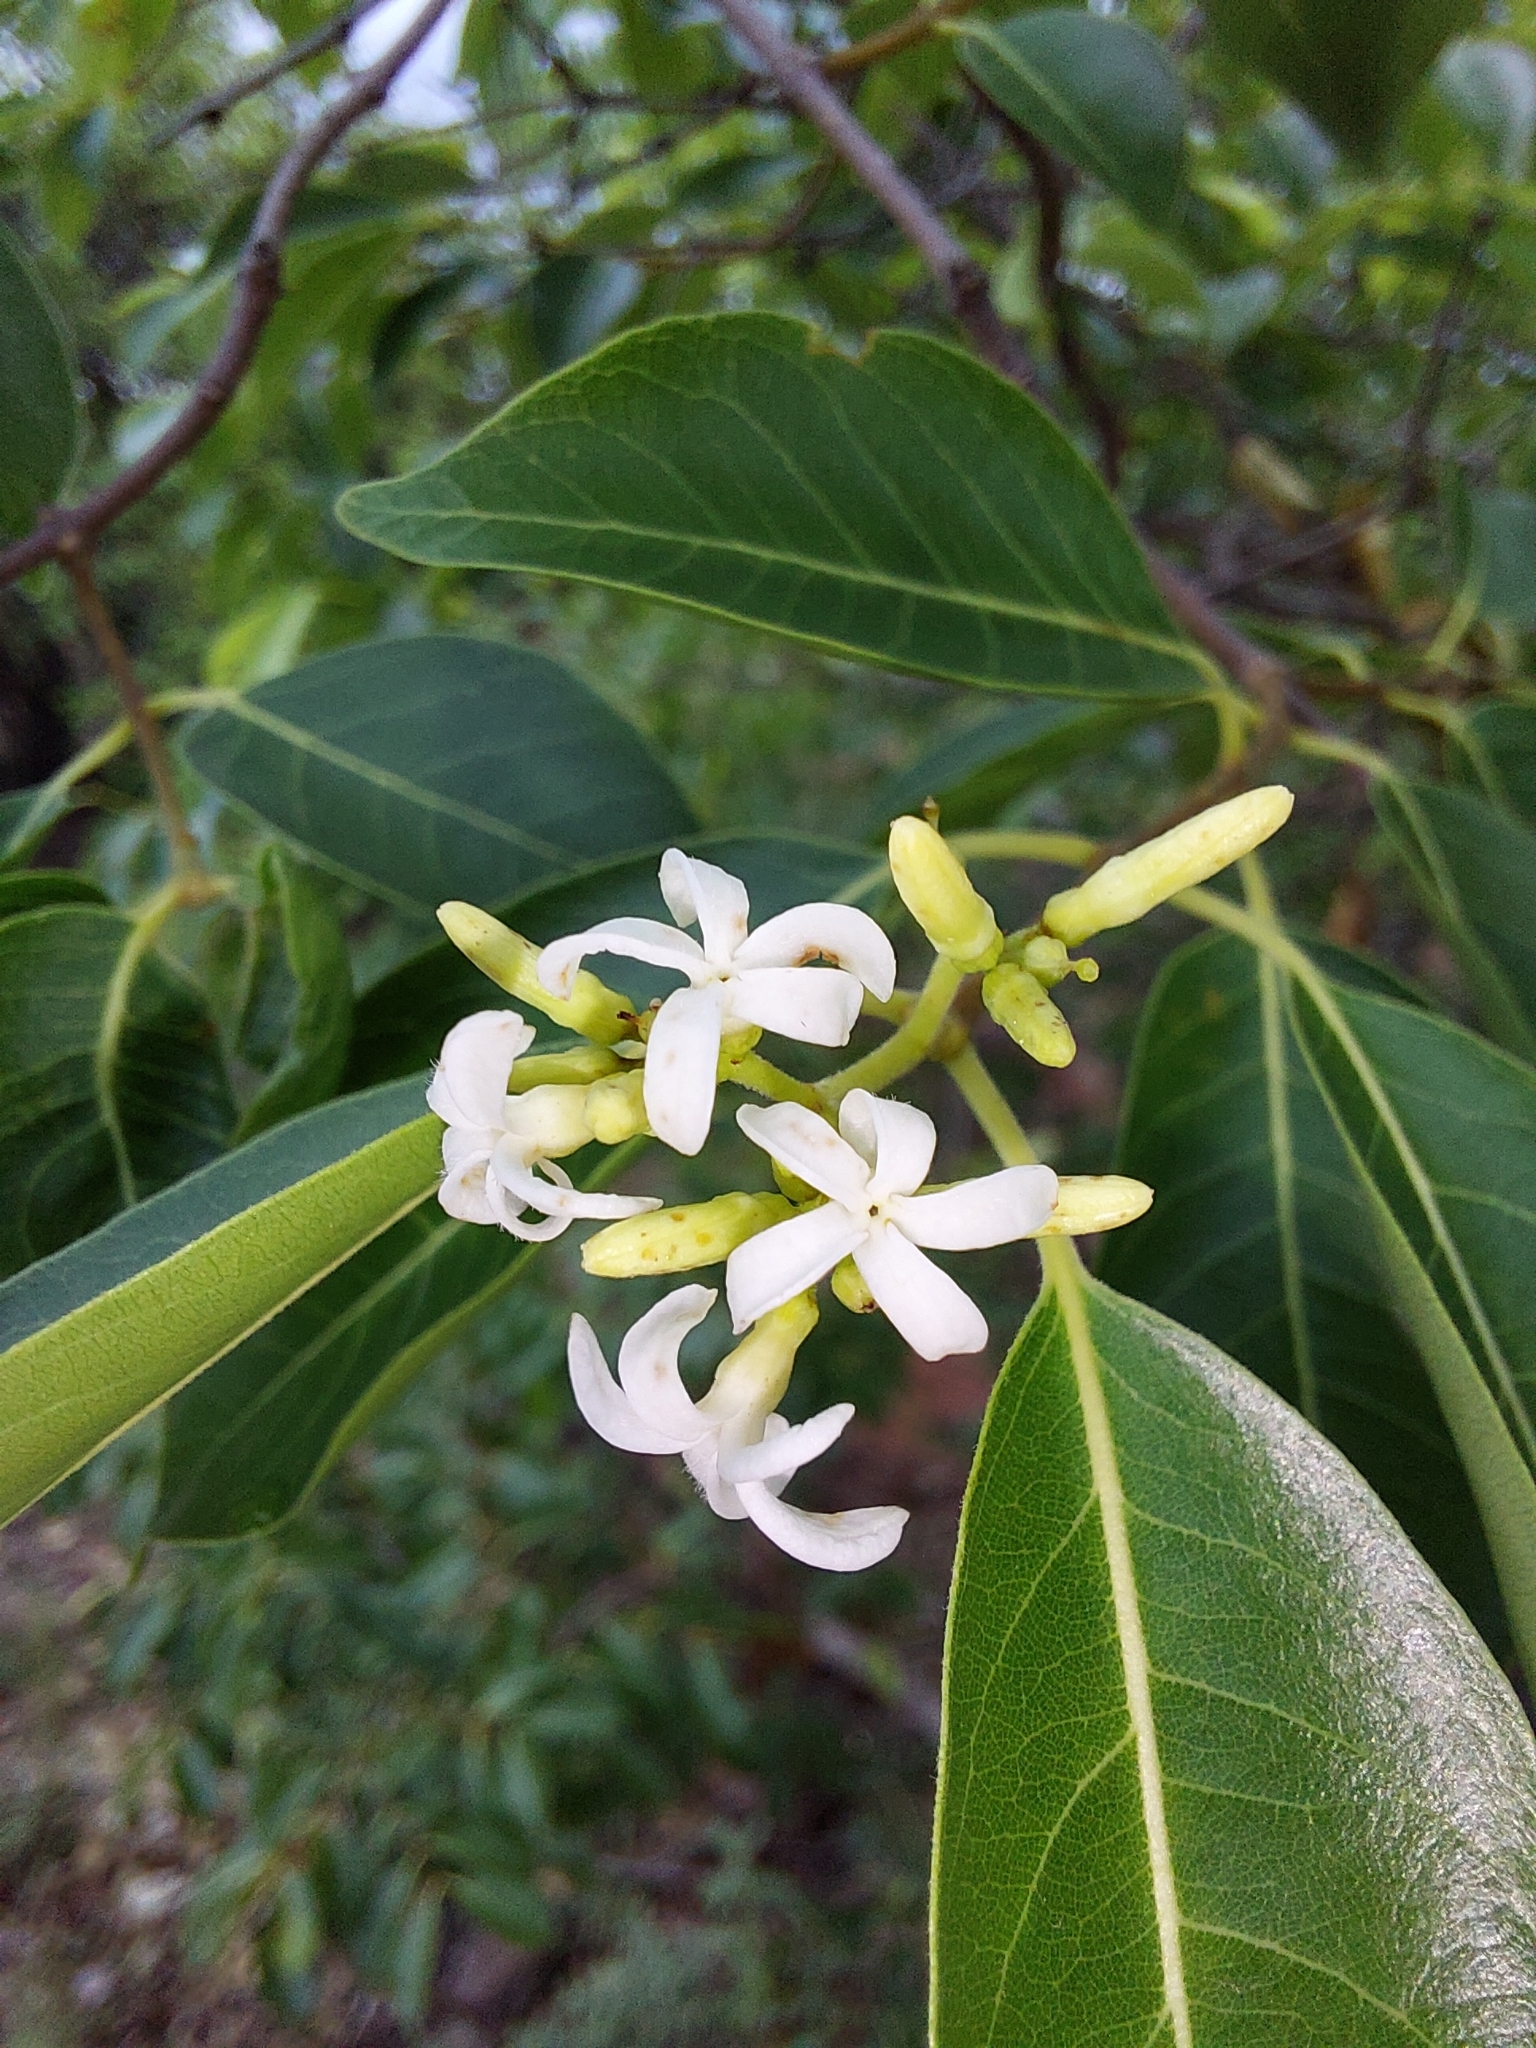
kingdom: Plantae
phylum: Tracheophyta
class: Magnoliopsida
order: Gentianales
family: Apocynaceae
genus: Diplorhynchus
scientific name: Diplorhynchus condylocarpon
